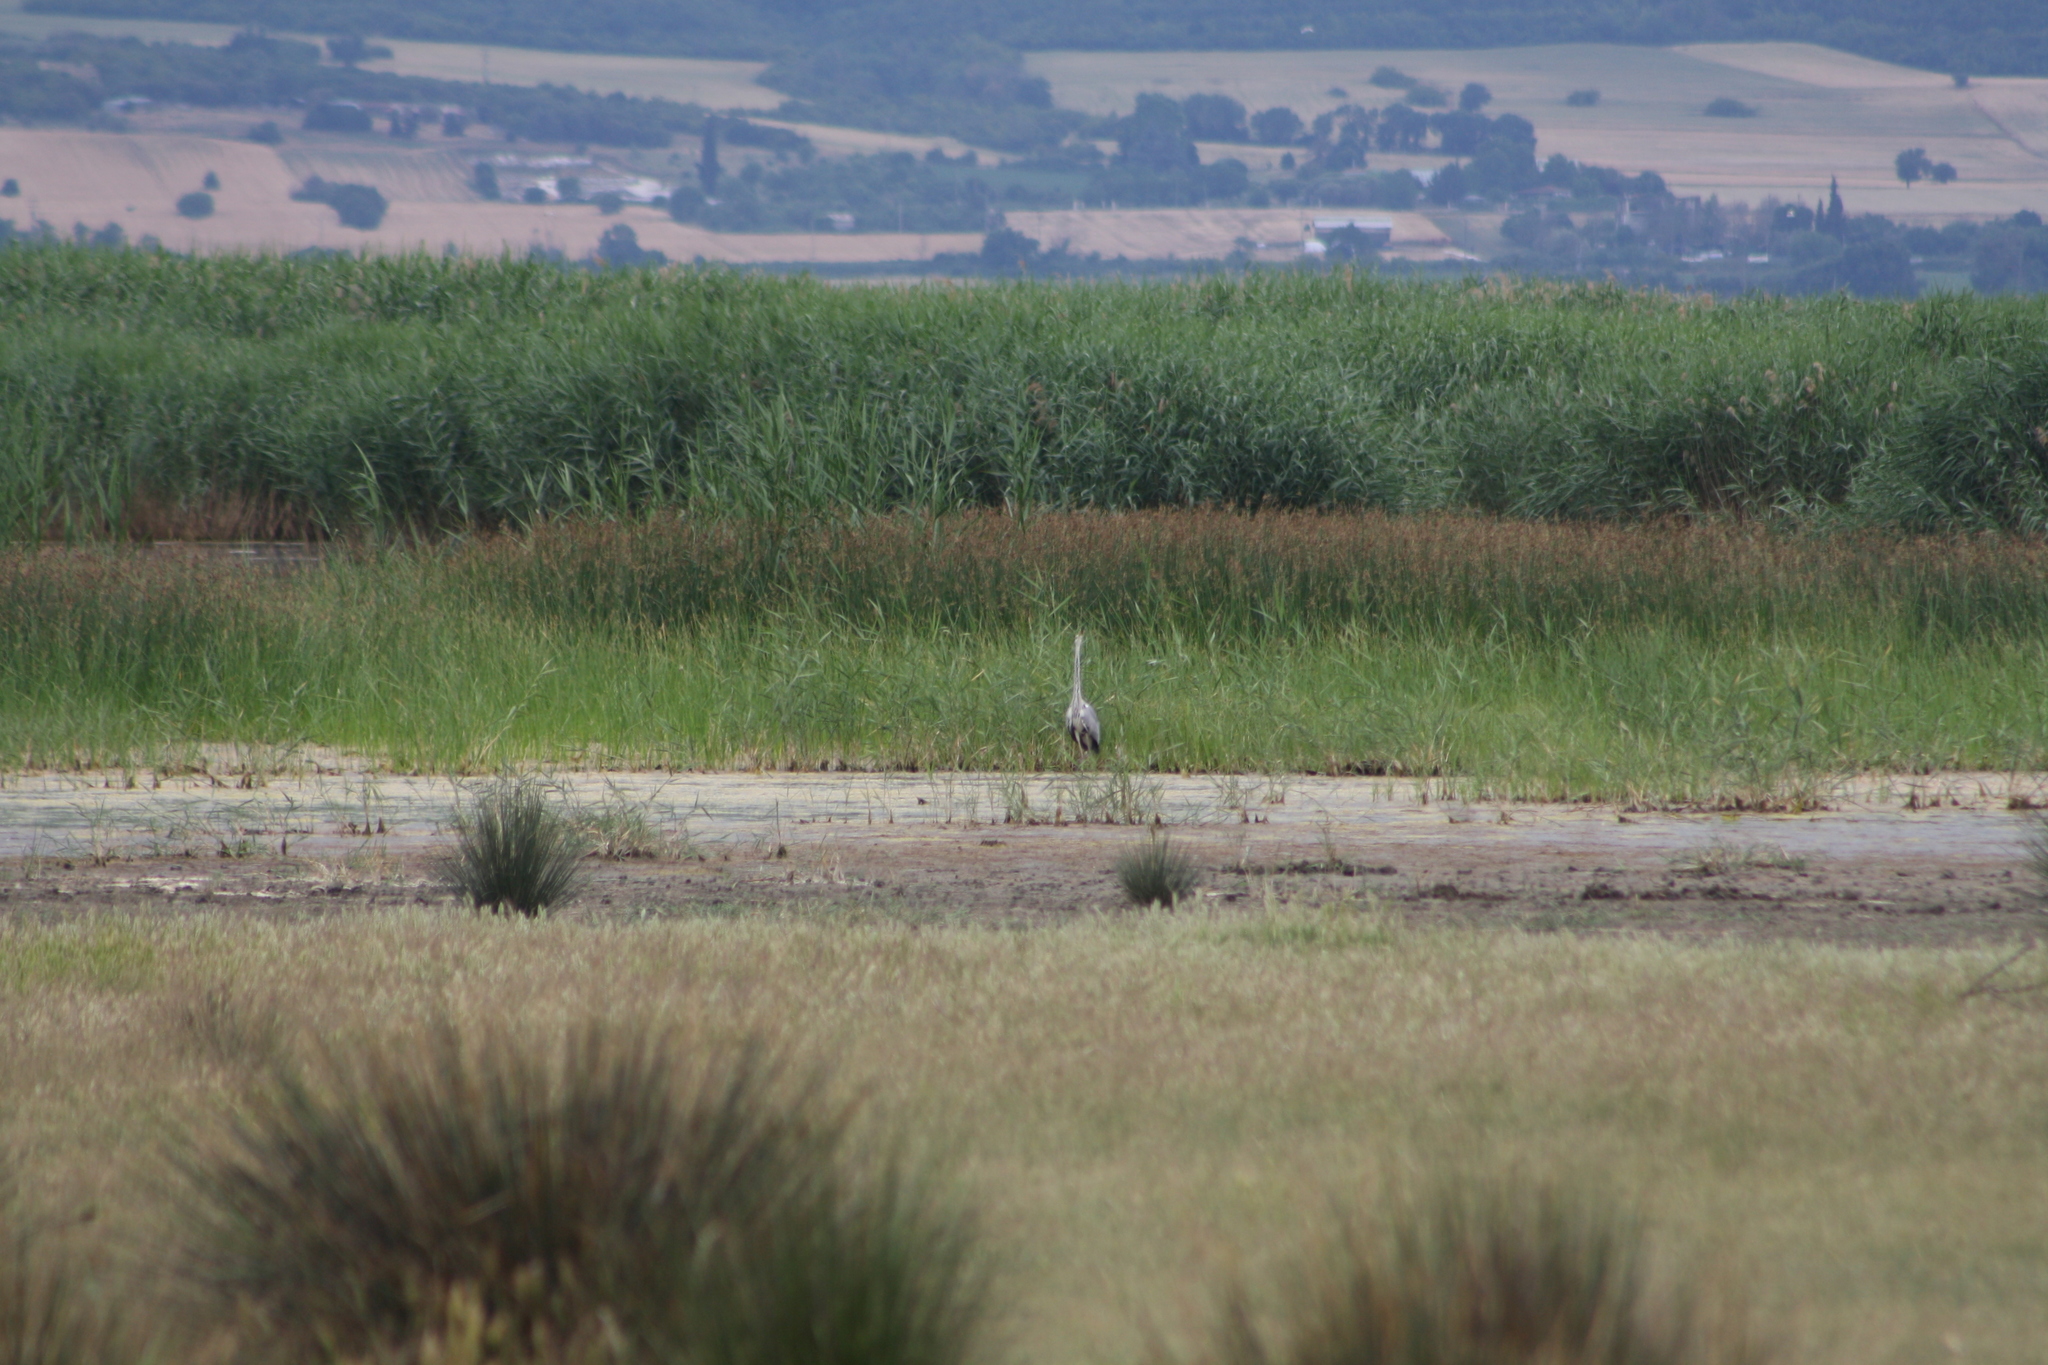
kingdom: Animalia
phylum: Chordata
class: Aves
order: Pelecaniformes
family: Ardeidae
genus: Ardea
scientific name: Ardea cinerea
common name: Grey heron
